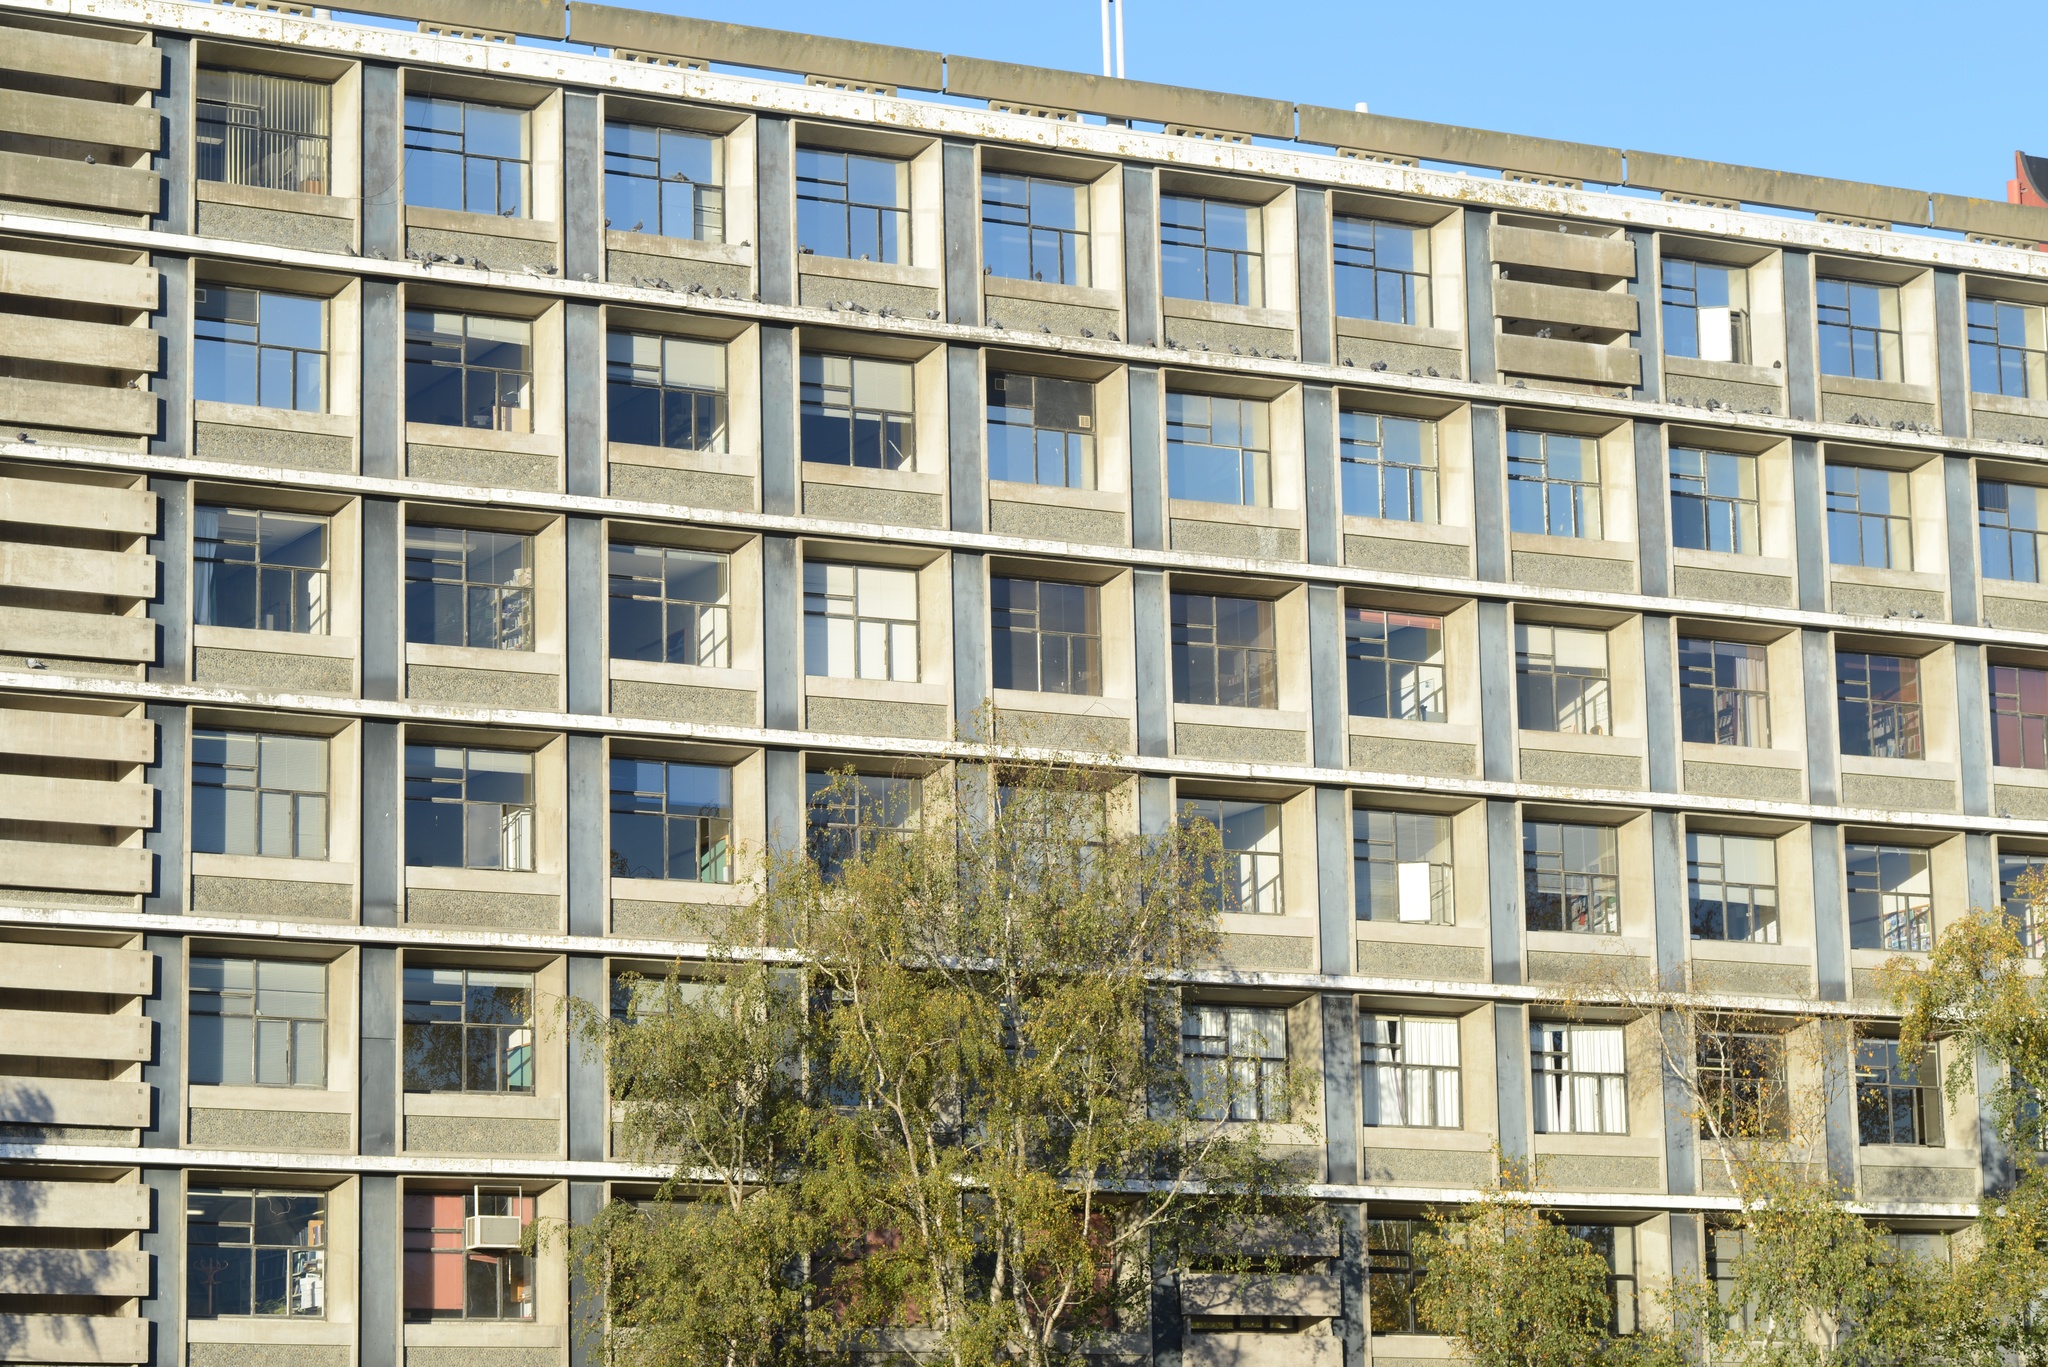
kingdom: Animalia
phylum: Chordata
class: Aves
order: Columbiformes
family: Columbidae
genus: Columba
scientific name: Columba livia
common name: Rock pigeon
